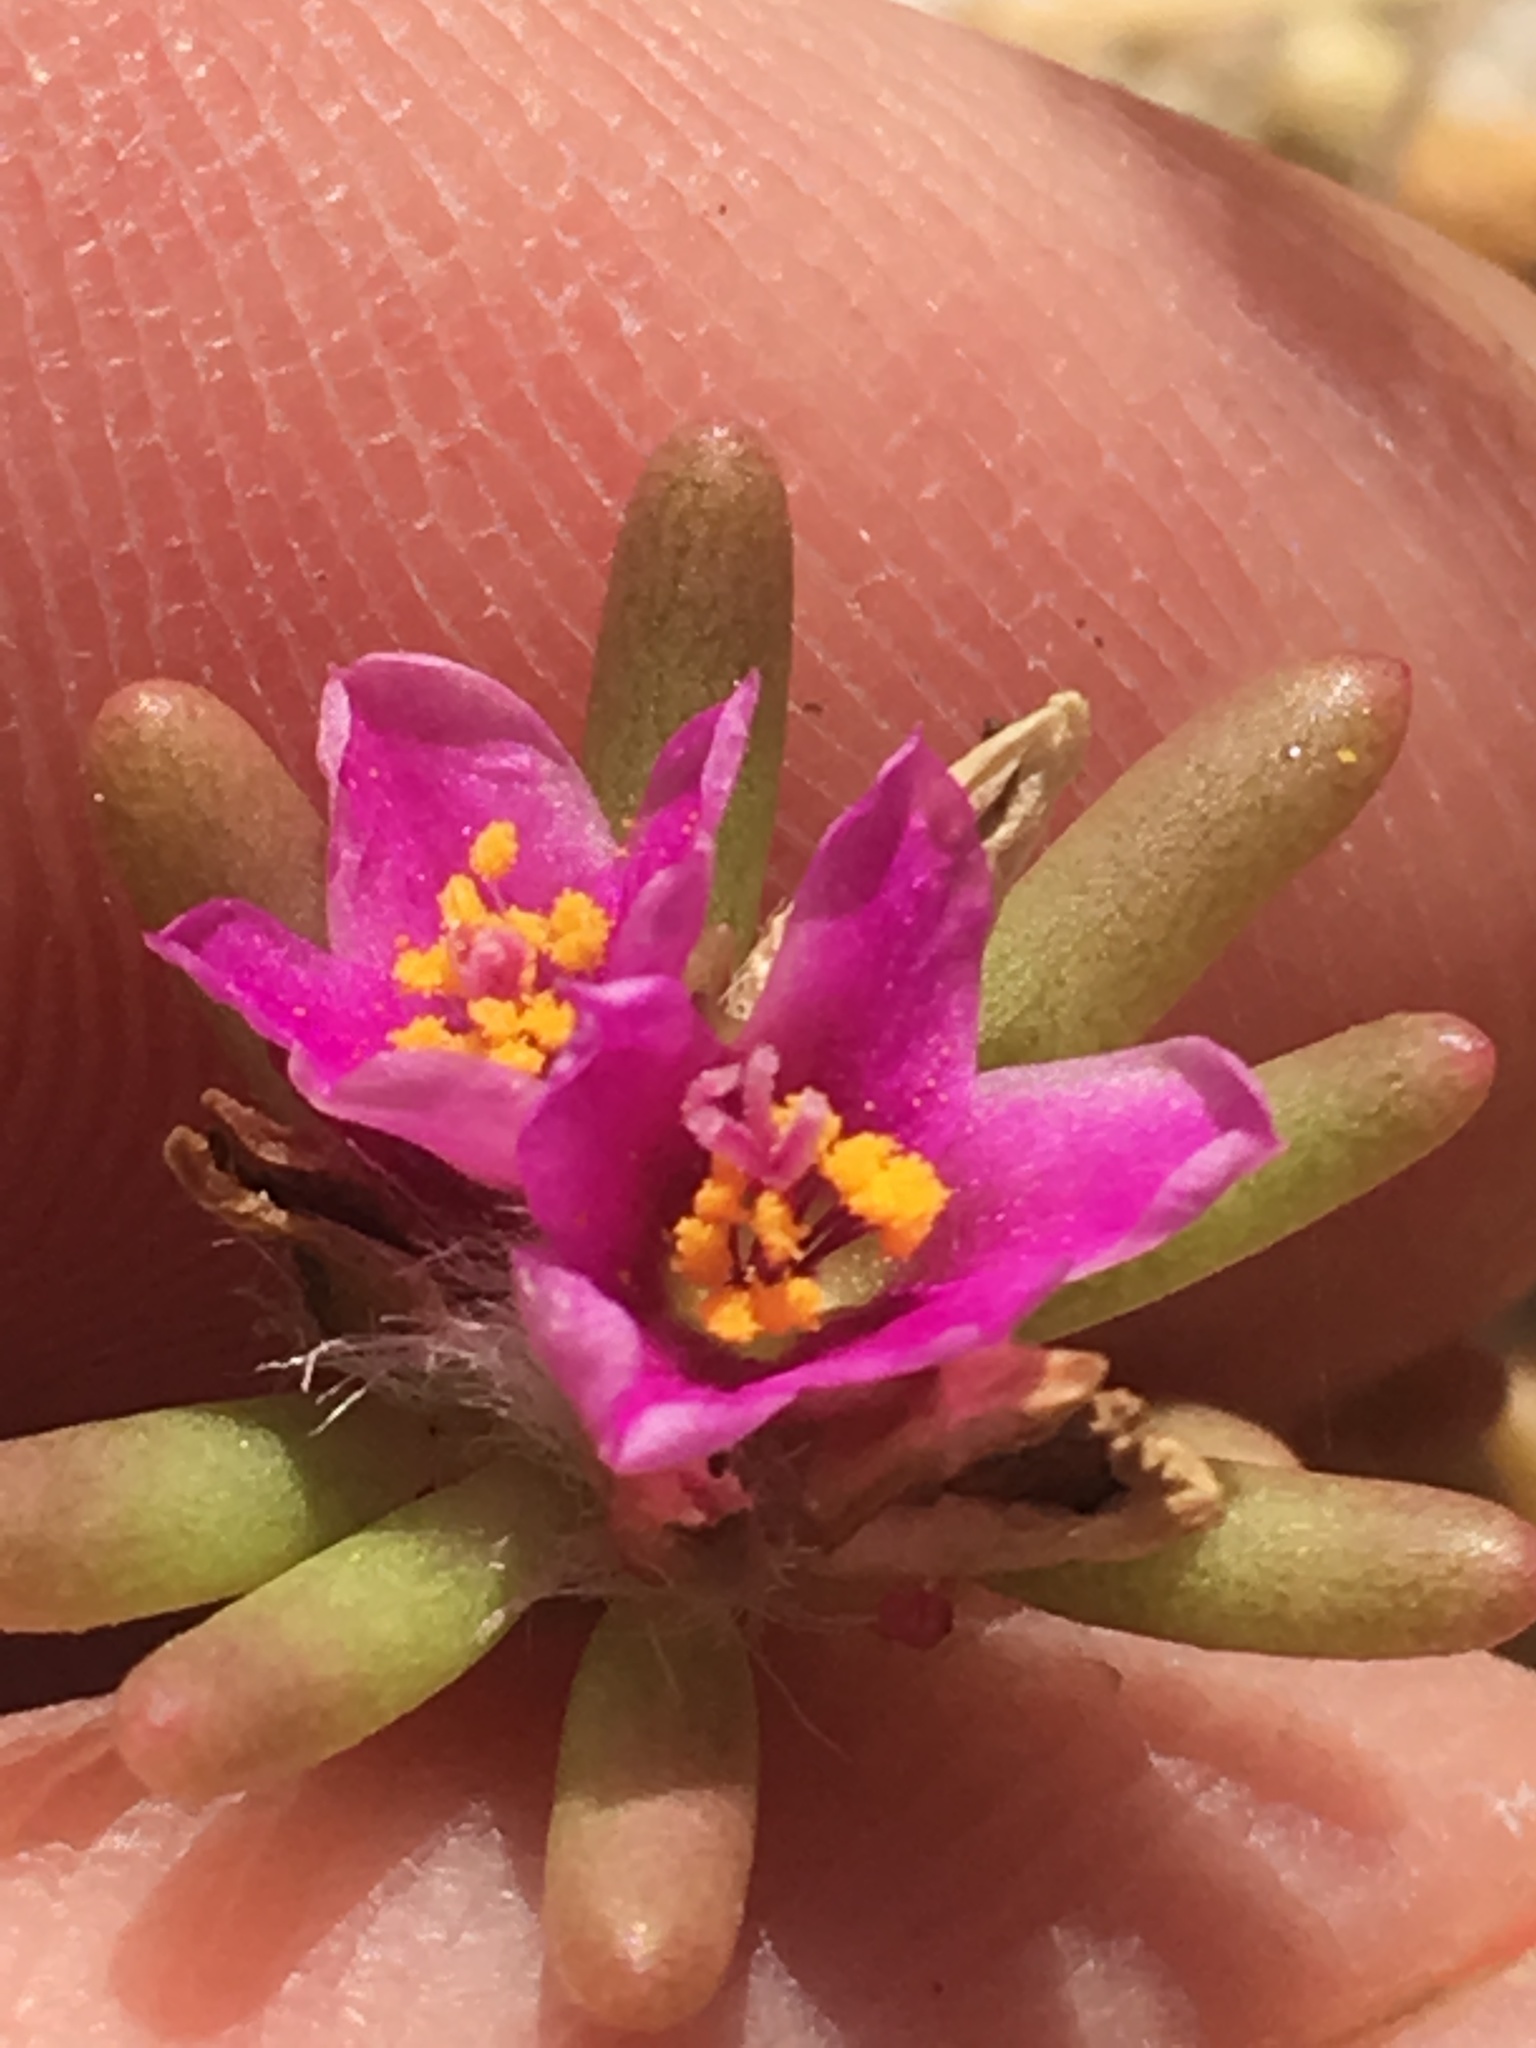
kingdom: Plantae
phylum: Tracheophyta
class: Magnoliopsida
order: Caryophyllales
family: Portulacaceae
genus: Portulaca
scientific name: Portulaca californica
